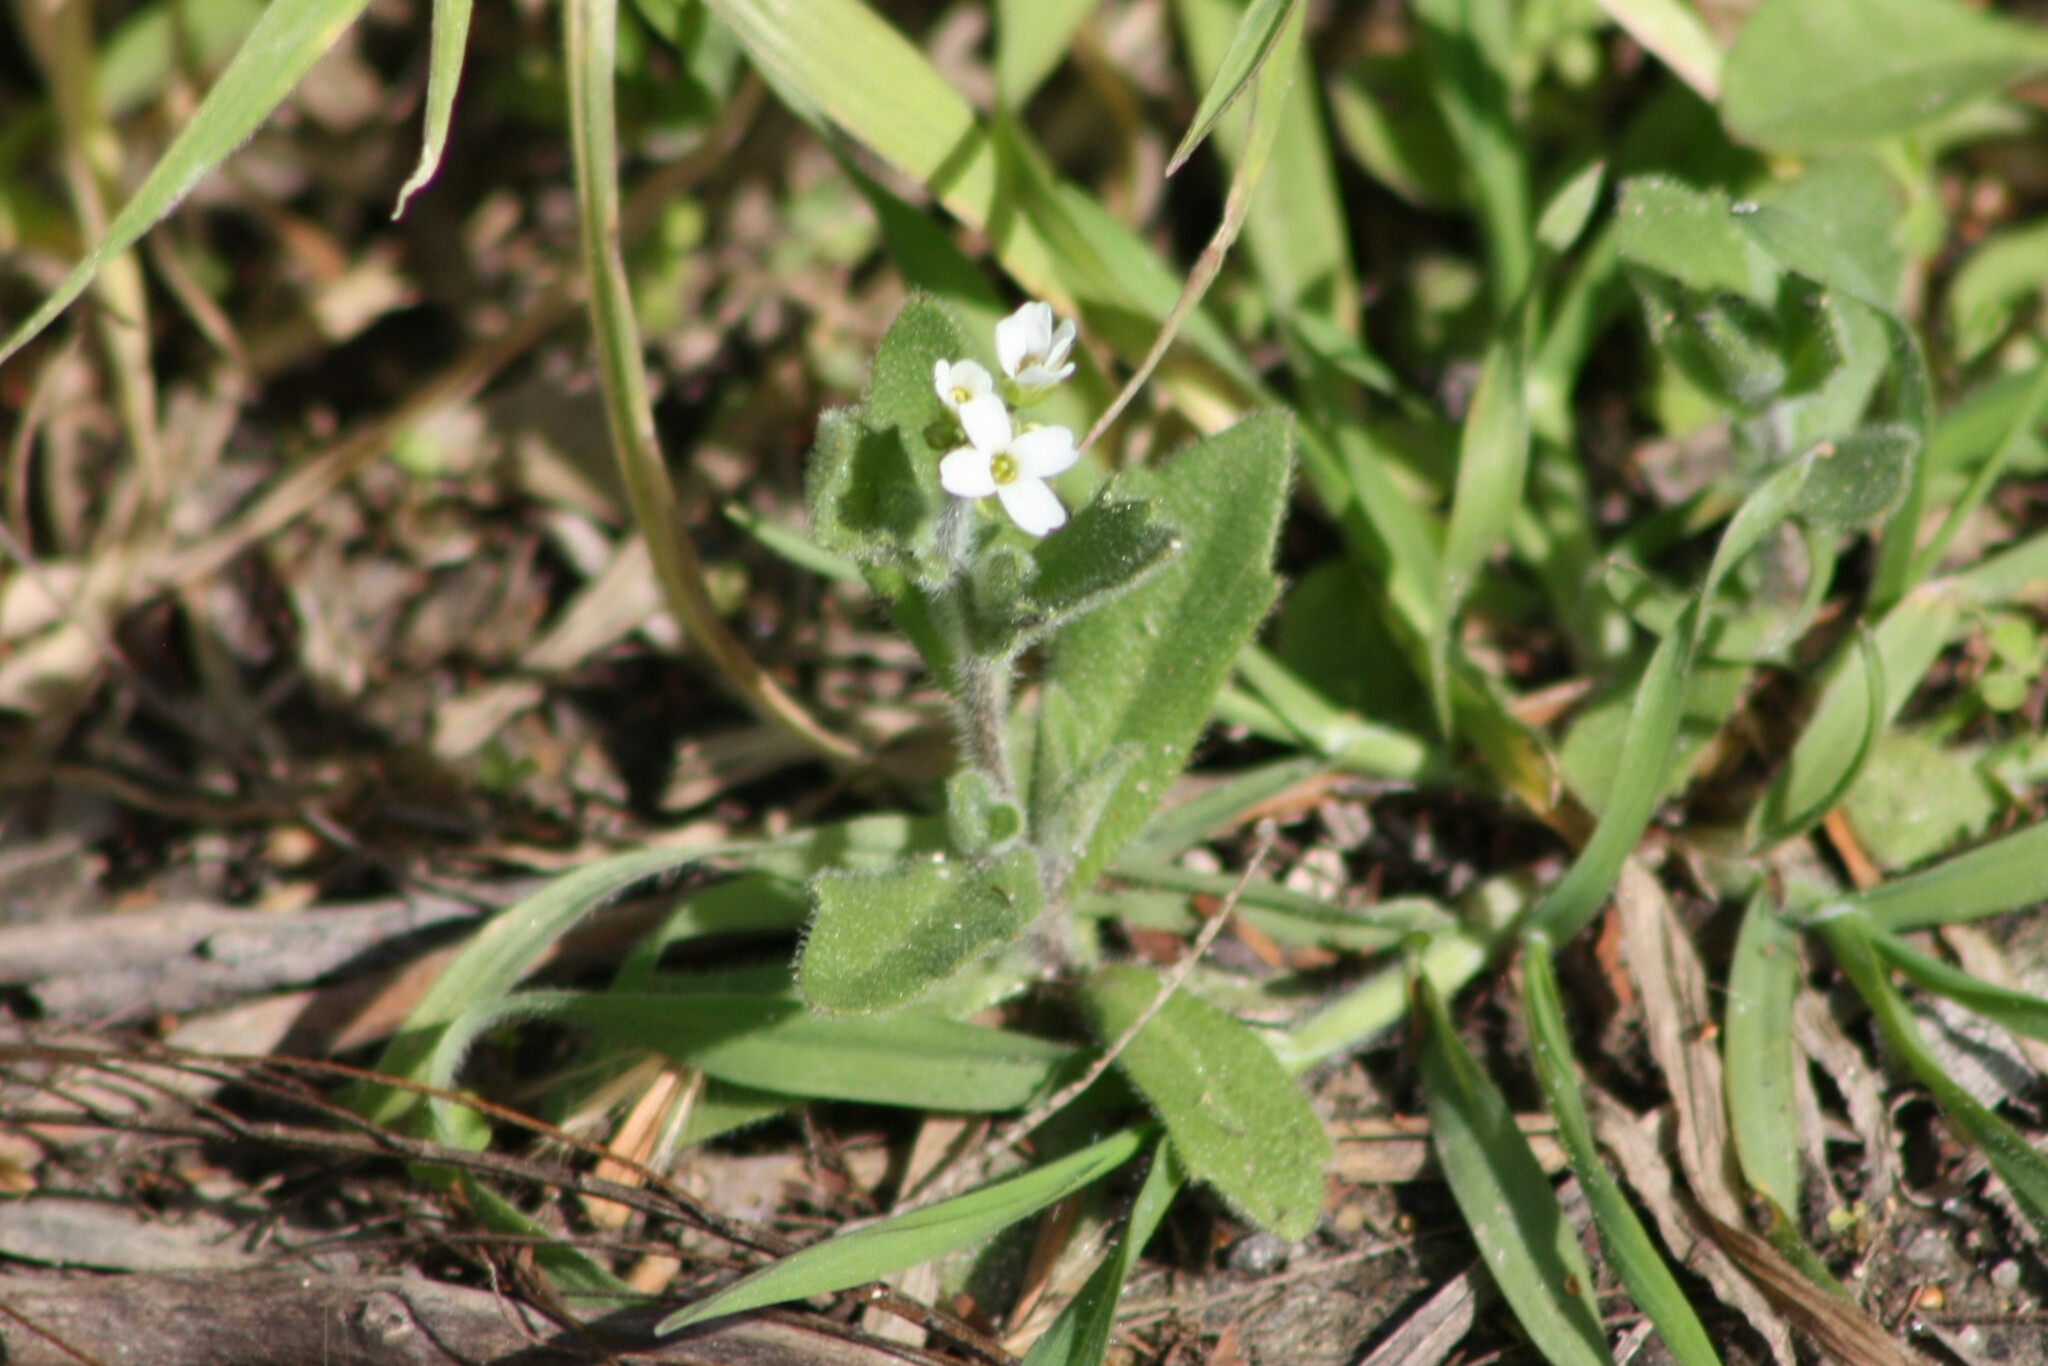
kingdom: Plantae
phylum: Tracheophyta
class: Magnoliopsida
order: Brassicales
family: Brassicaceae
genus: Tomostima
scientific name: Tomostima platycarpa
